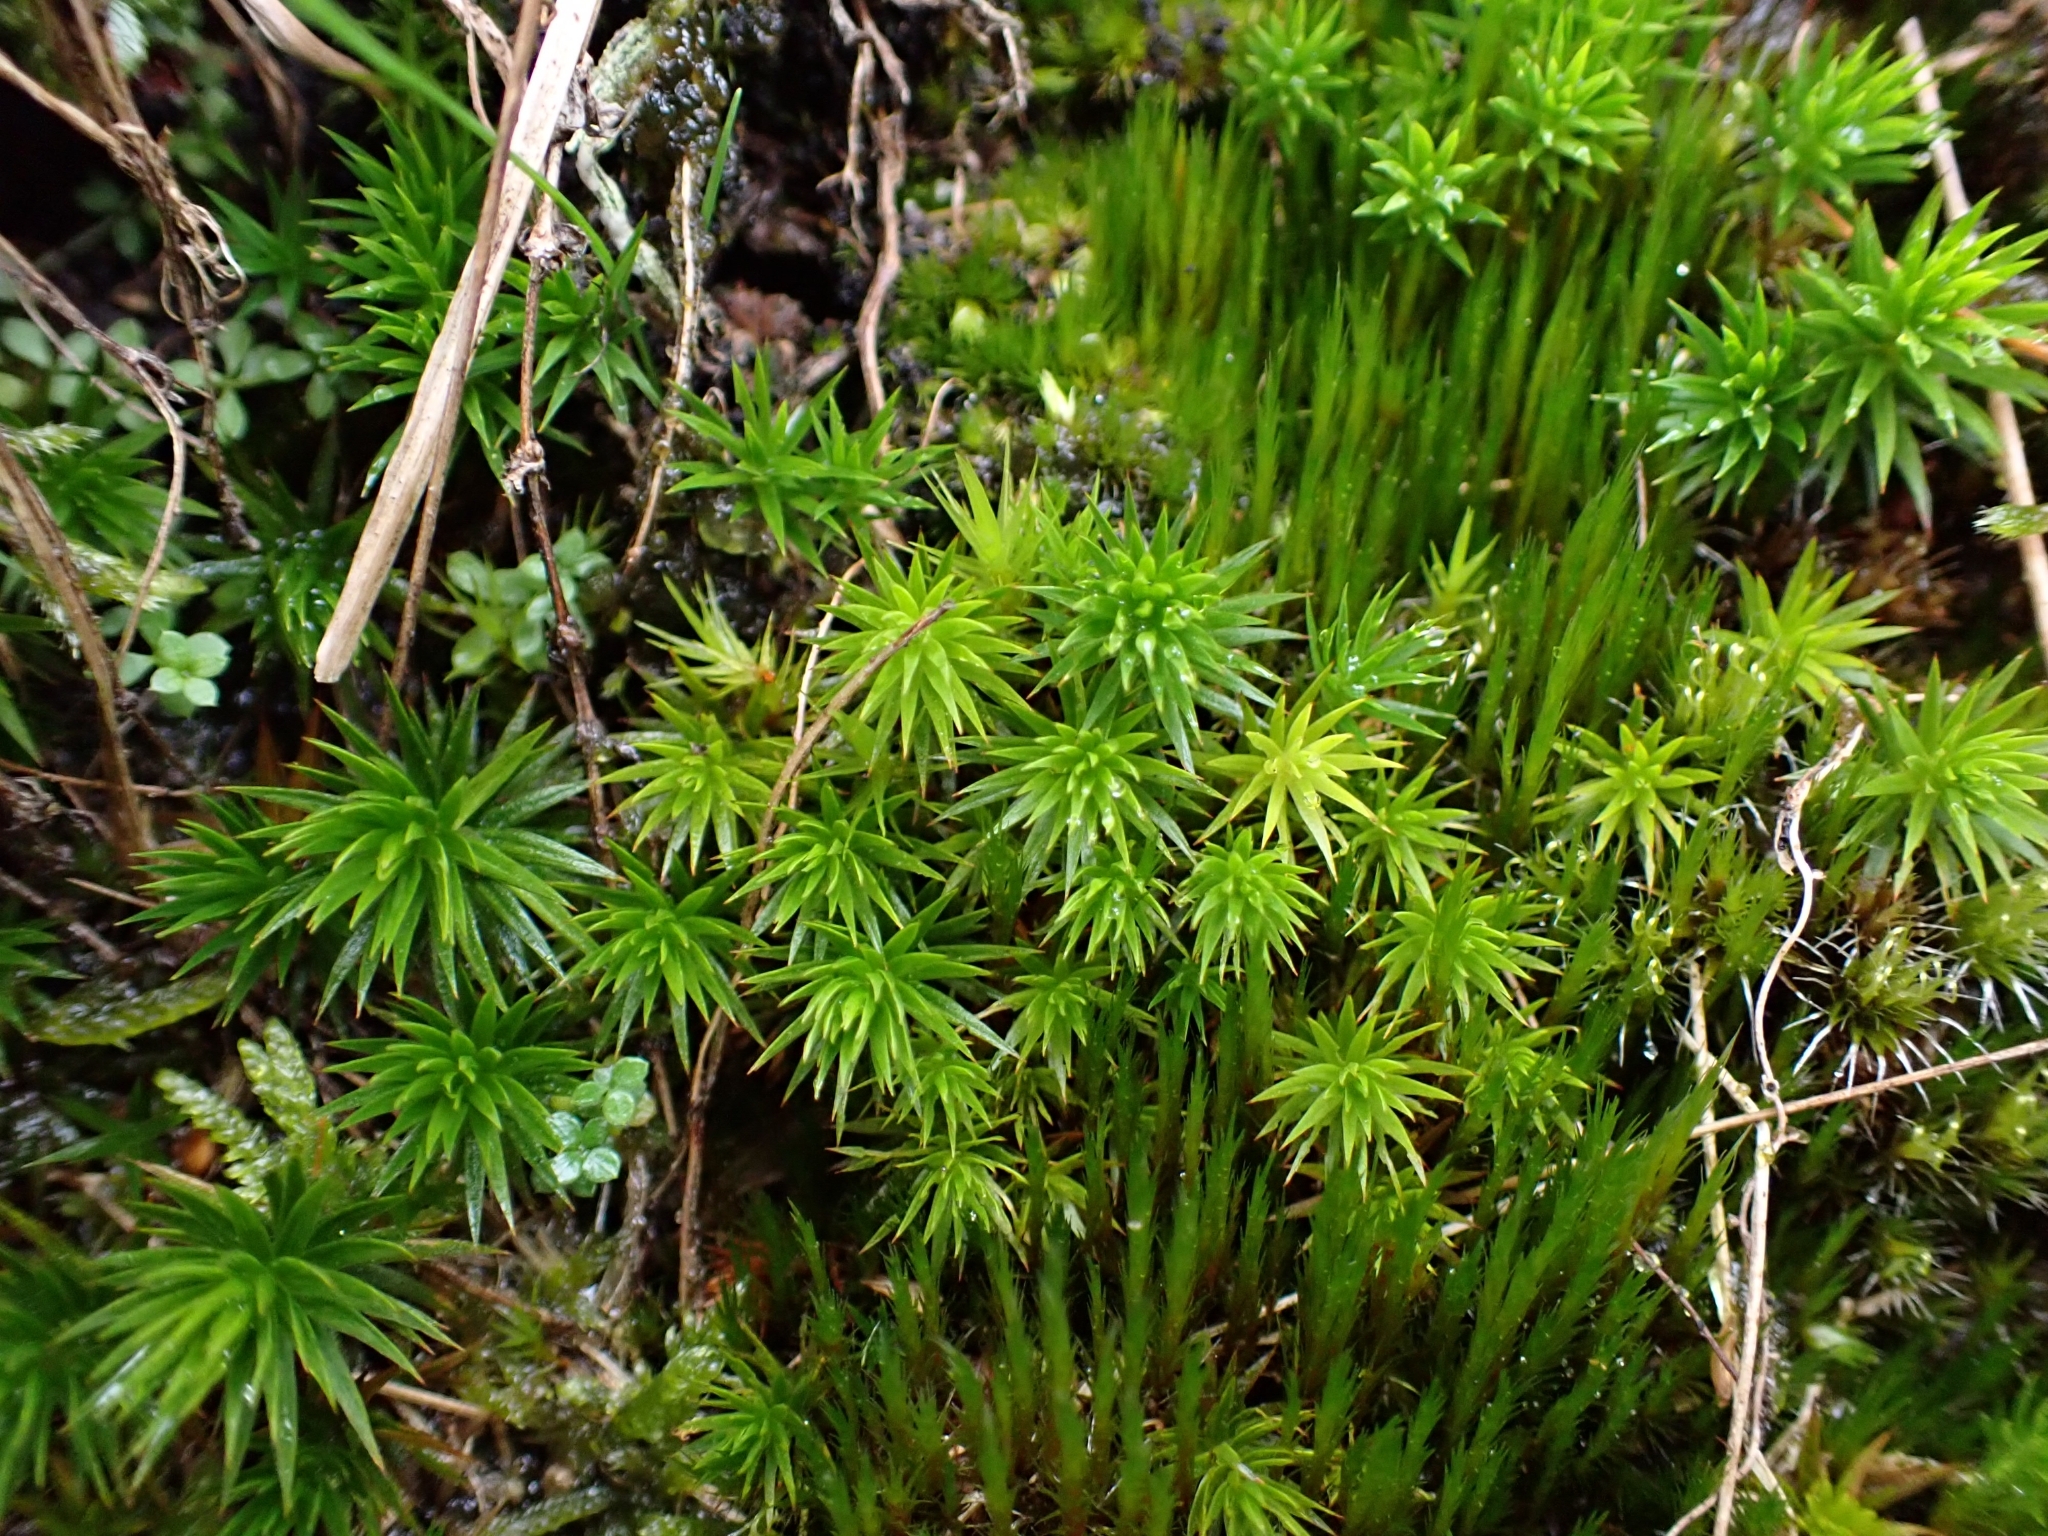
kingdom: Plantae
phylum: Bryophyta
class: Polytrichopsida
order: Polytrichales
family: Polytrichaceae
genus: Polytrichum
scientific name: Polytrichum formosum
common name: Bank haircap moss
